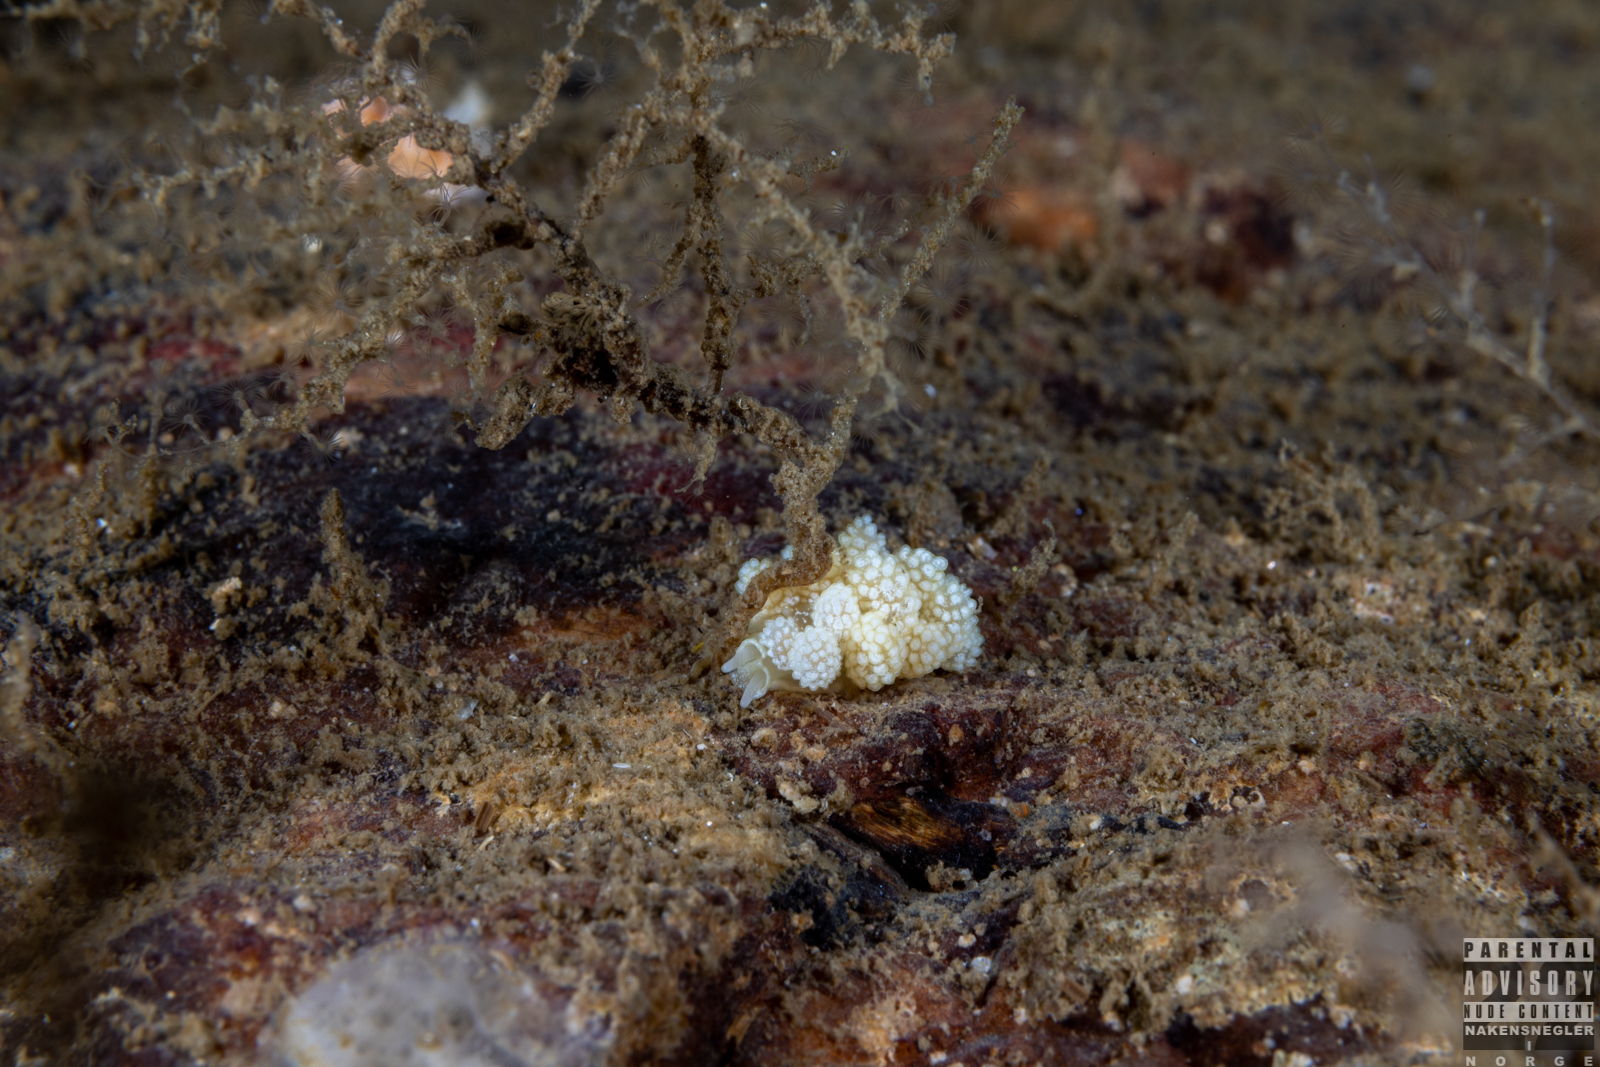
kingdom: Animalia
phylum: Mollusca
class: Gastropoda
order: Nudibranchia
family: Dotidae
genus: Doto
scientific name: Doto fragilis
